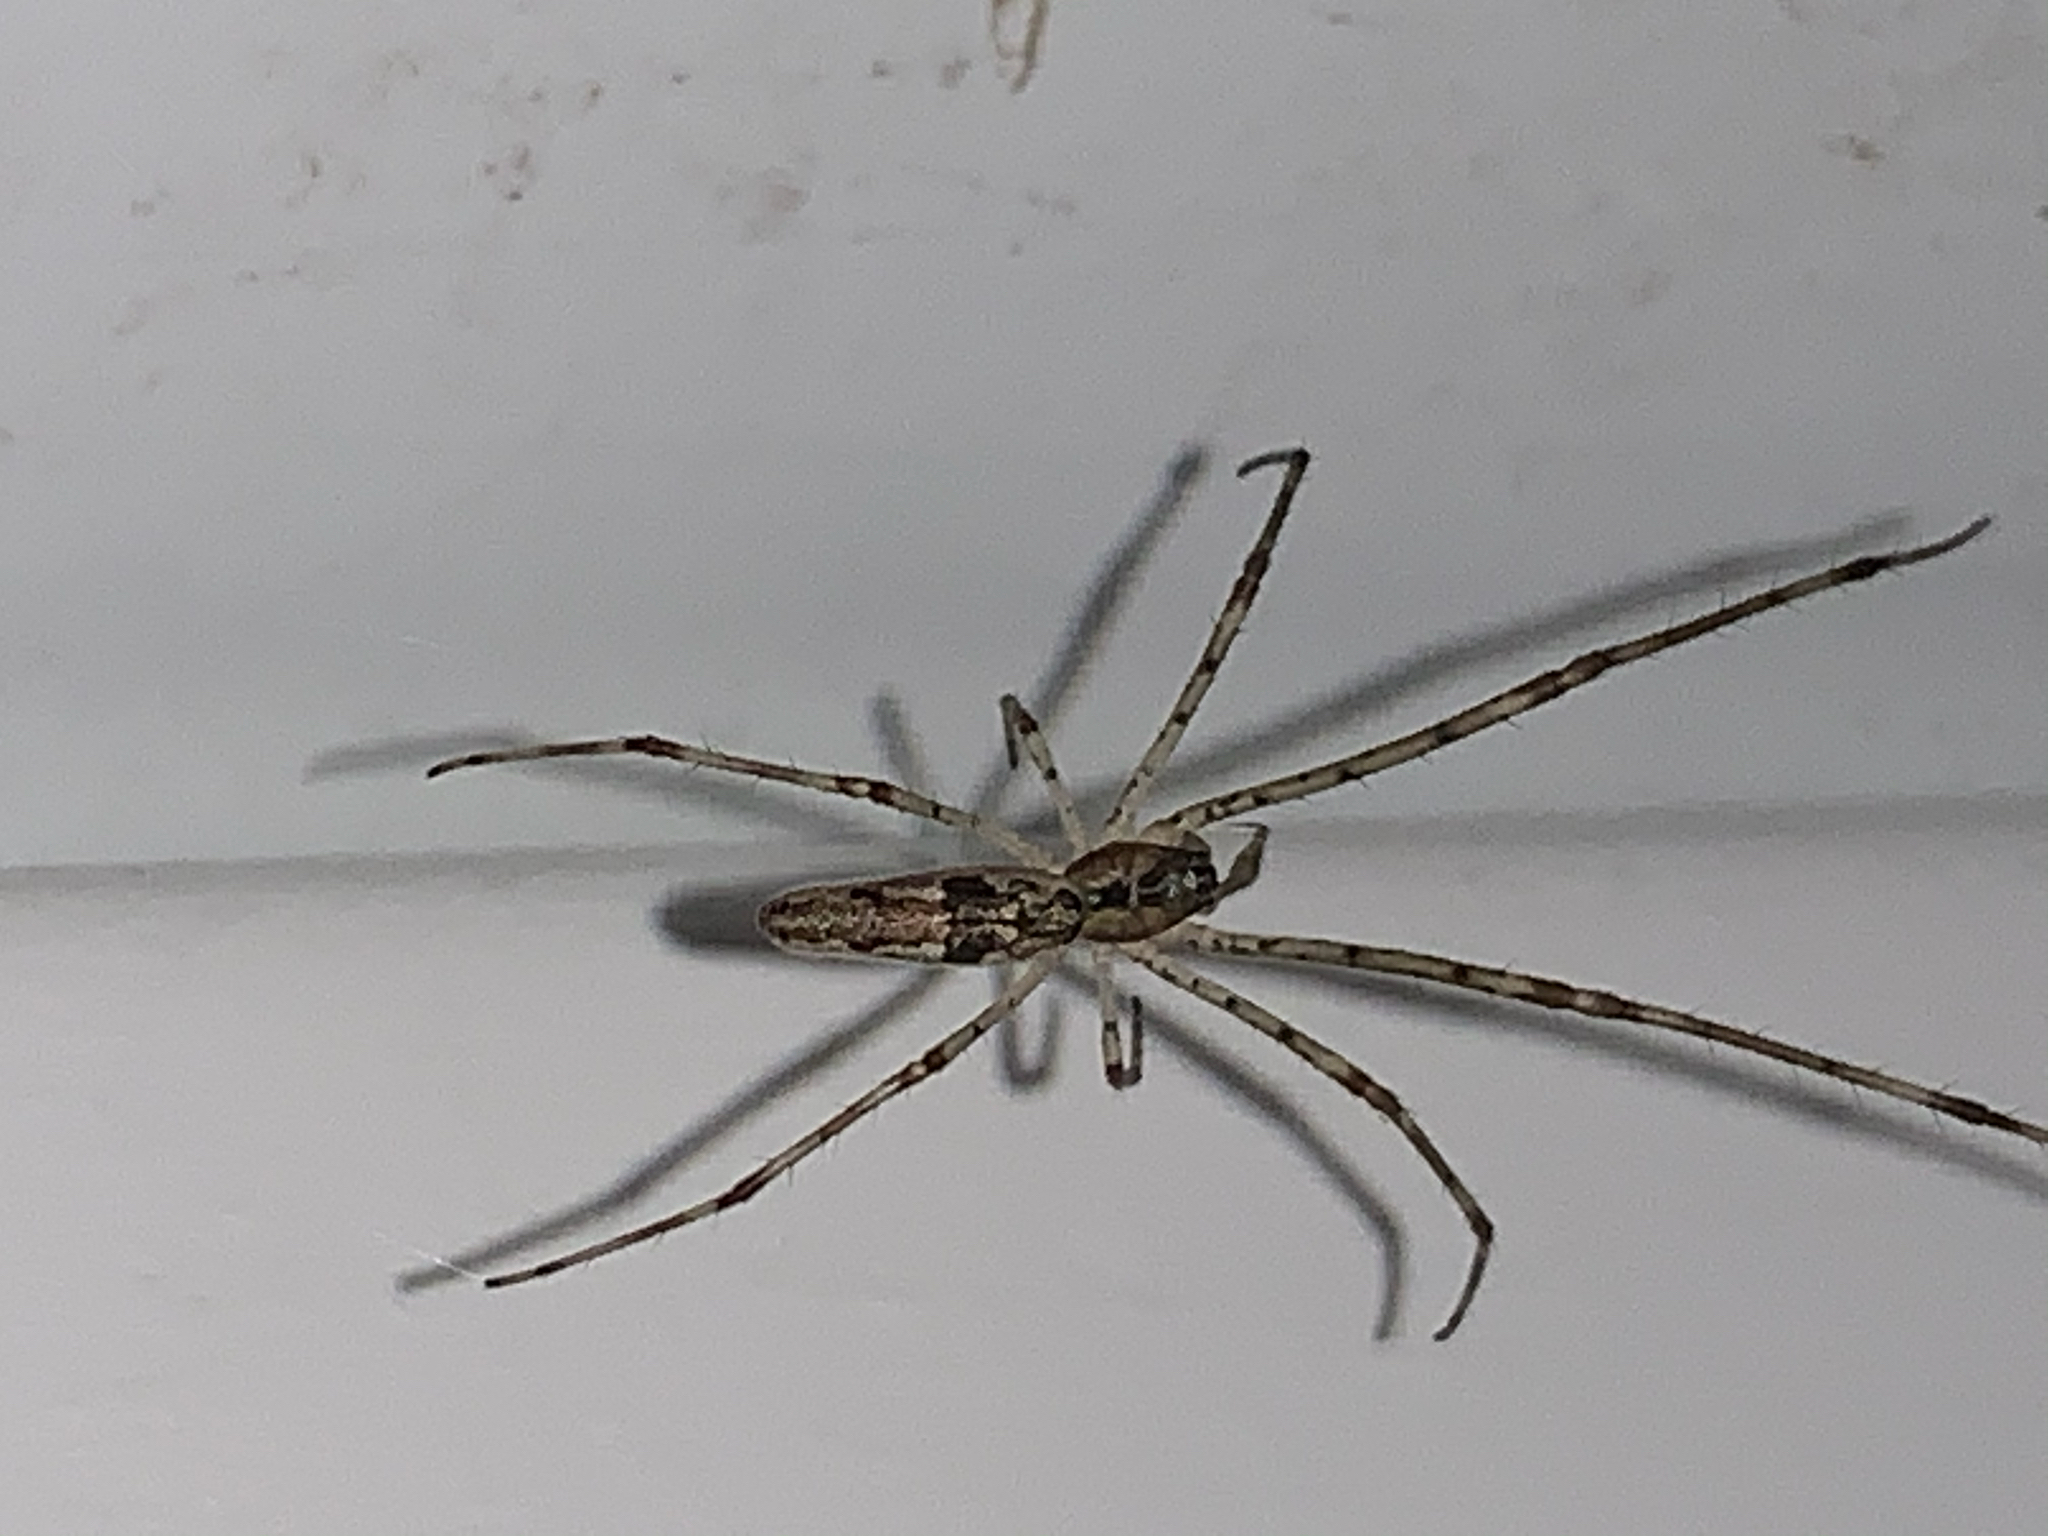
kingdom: Animalia
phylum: Arthropoda
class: Arachnida
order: Araneae
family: Tetragnathidae
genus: Tetragnatha
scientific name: Tetragnatha
